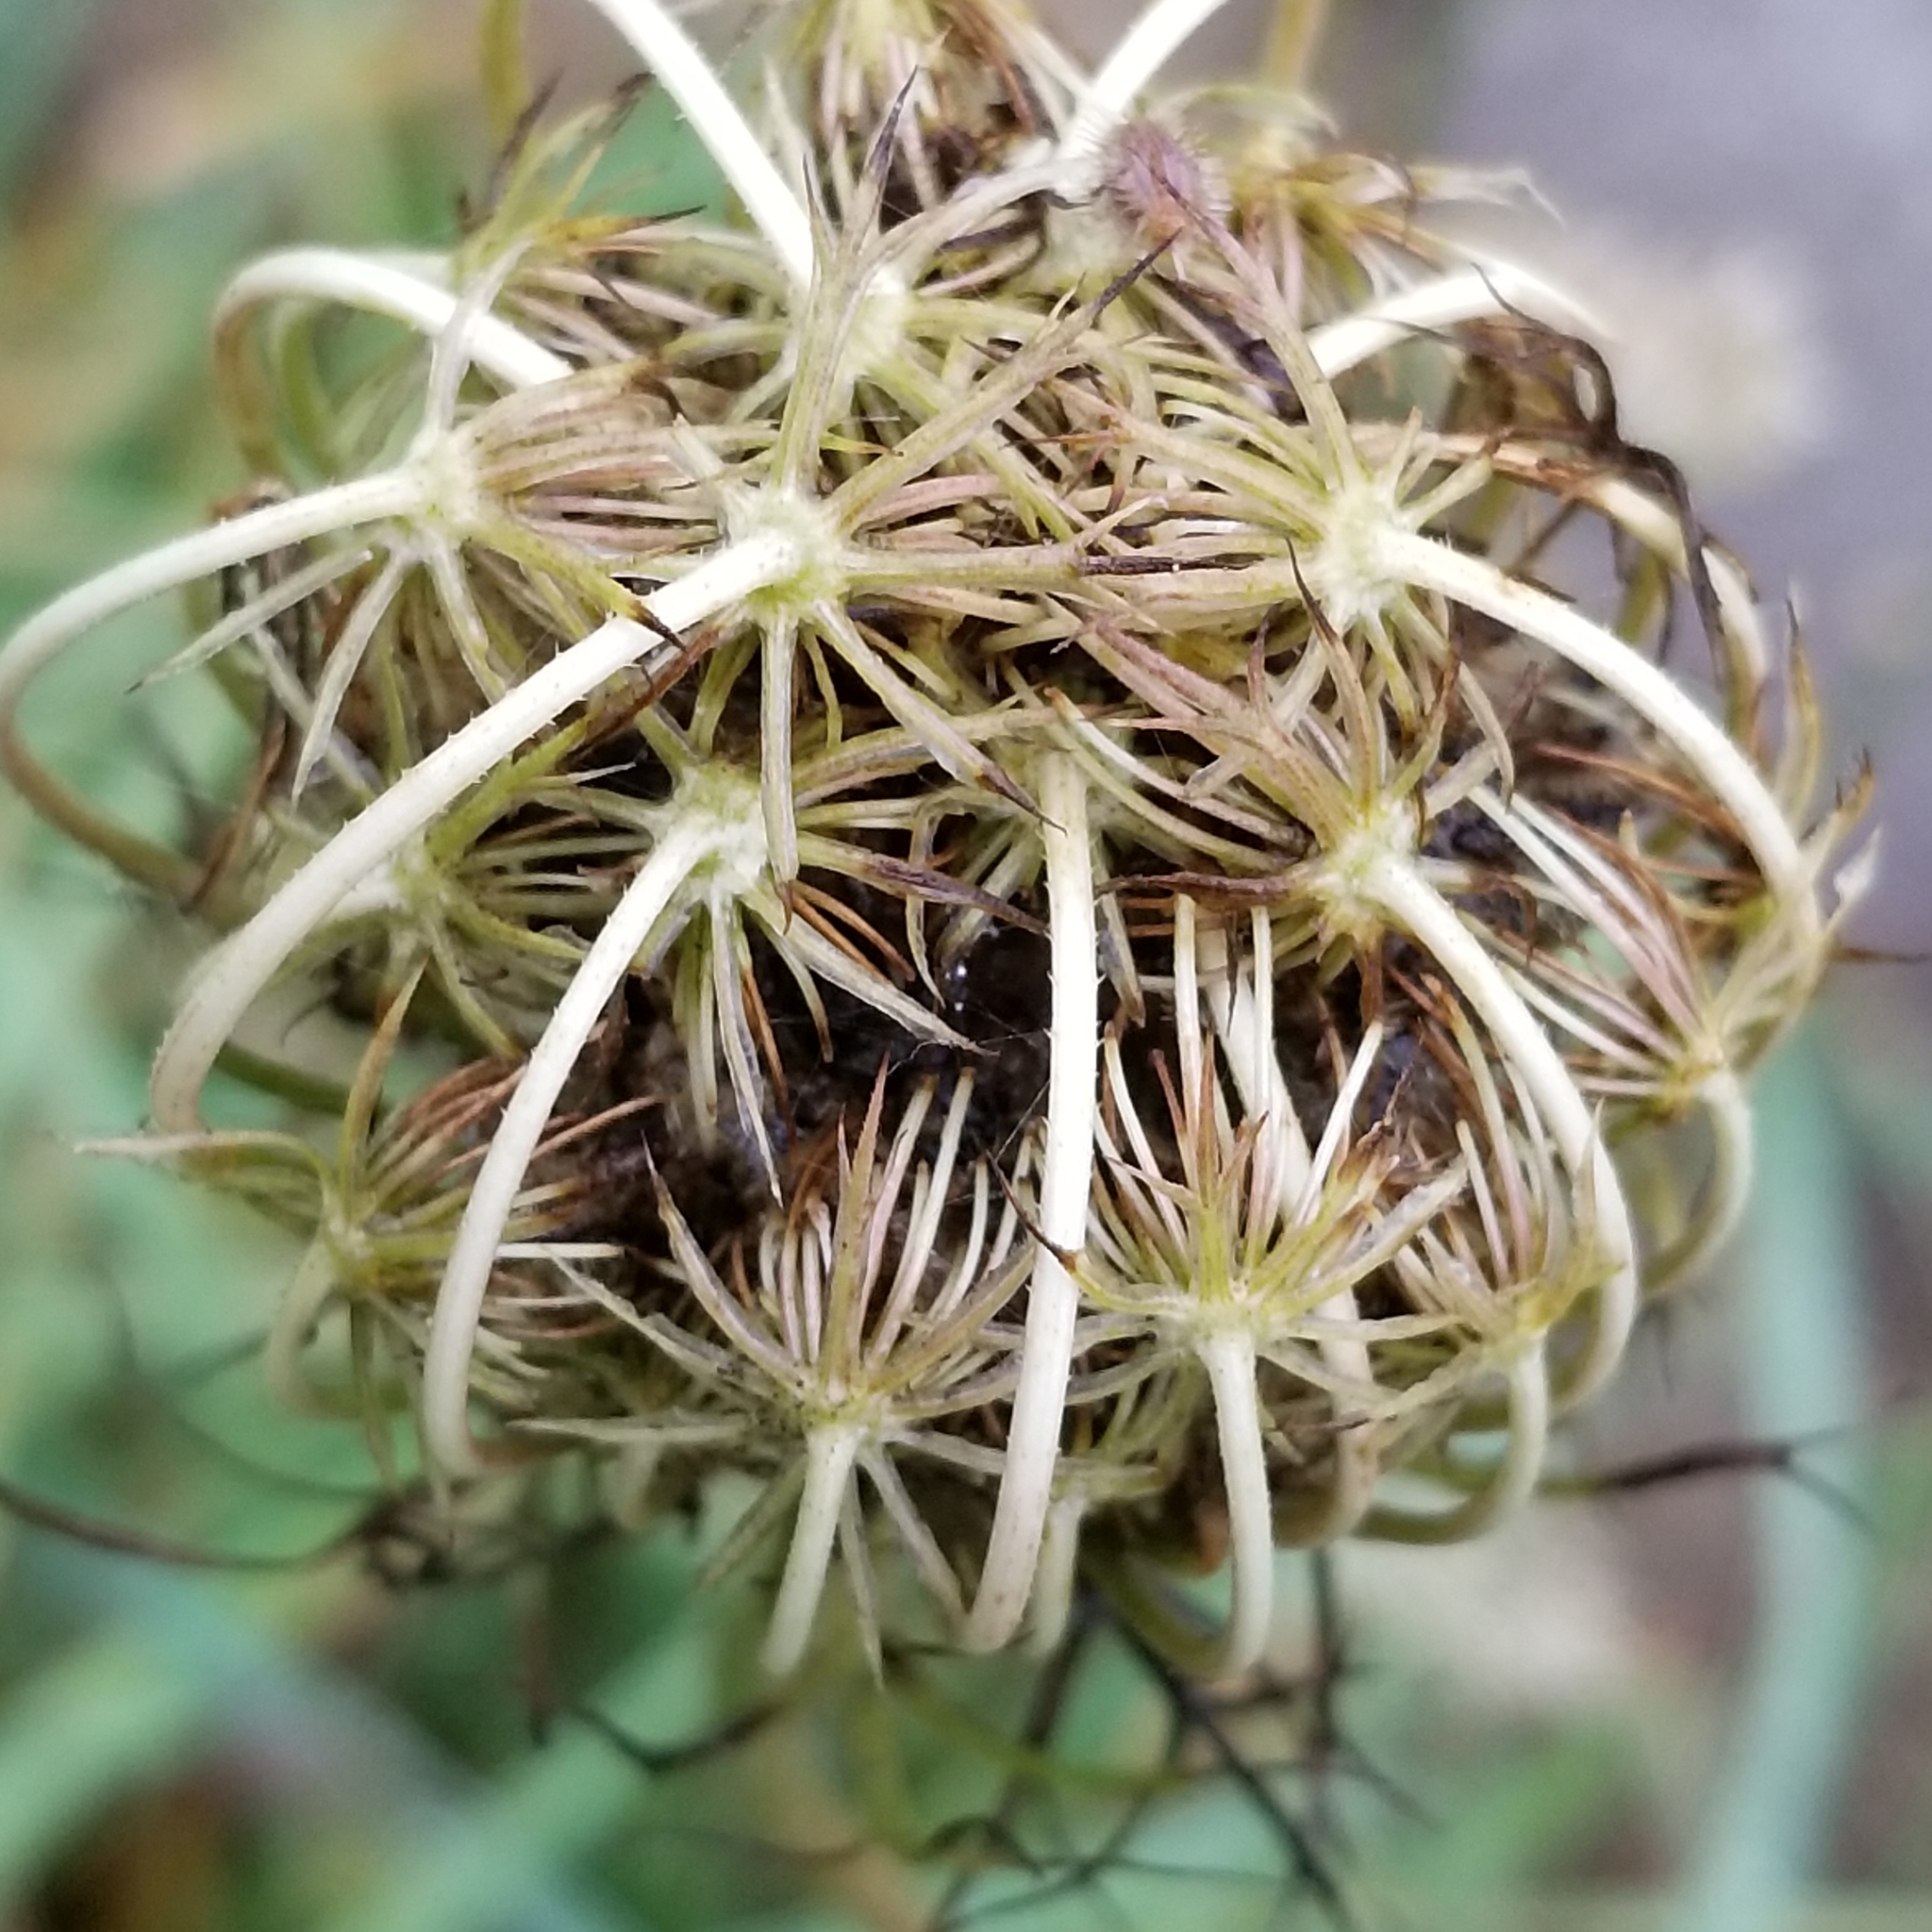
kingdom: Plantae
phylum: Tracheophyta
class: Magnoliopsida
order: Apiales
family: Apiaceae
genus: Daucus
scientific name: Daucus carota
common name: Wild carrot
